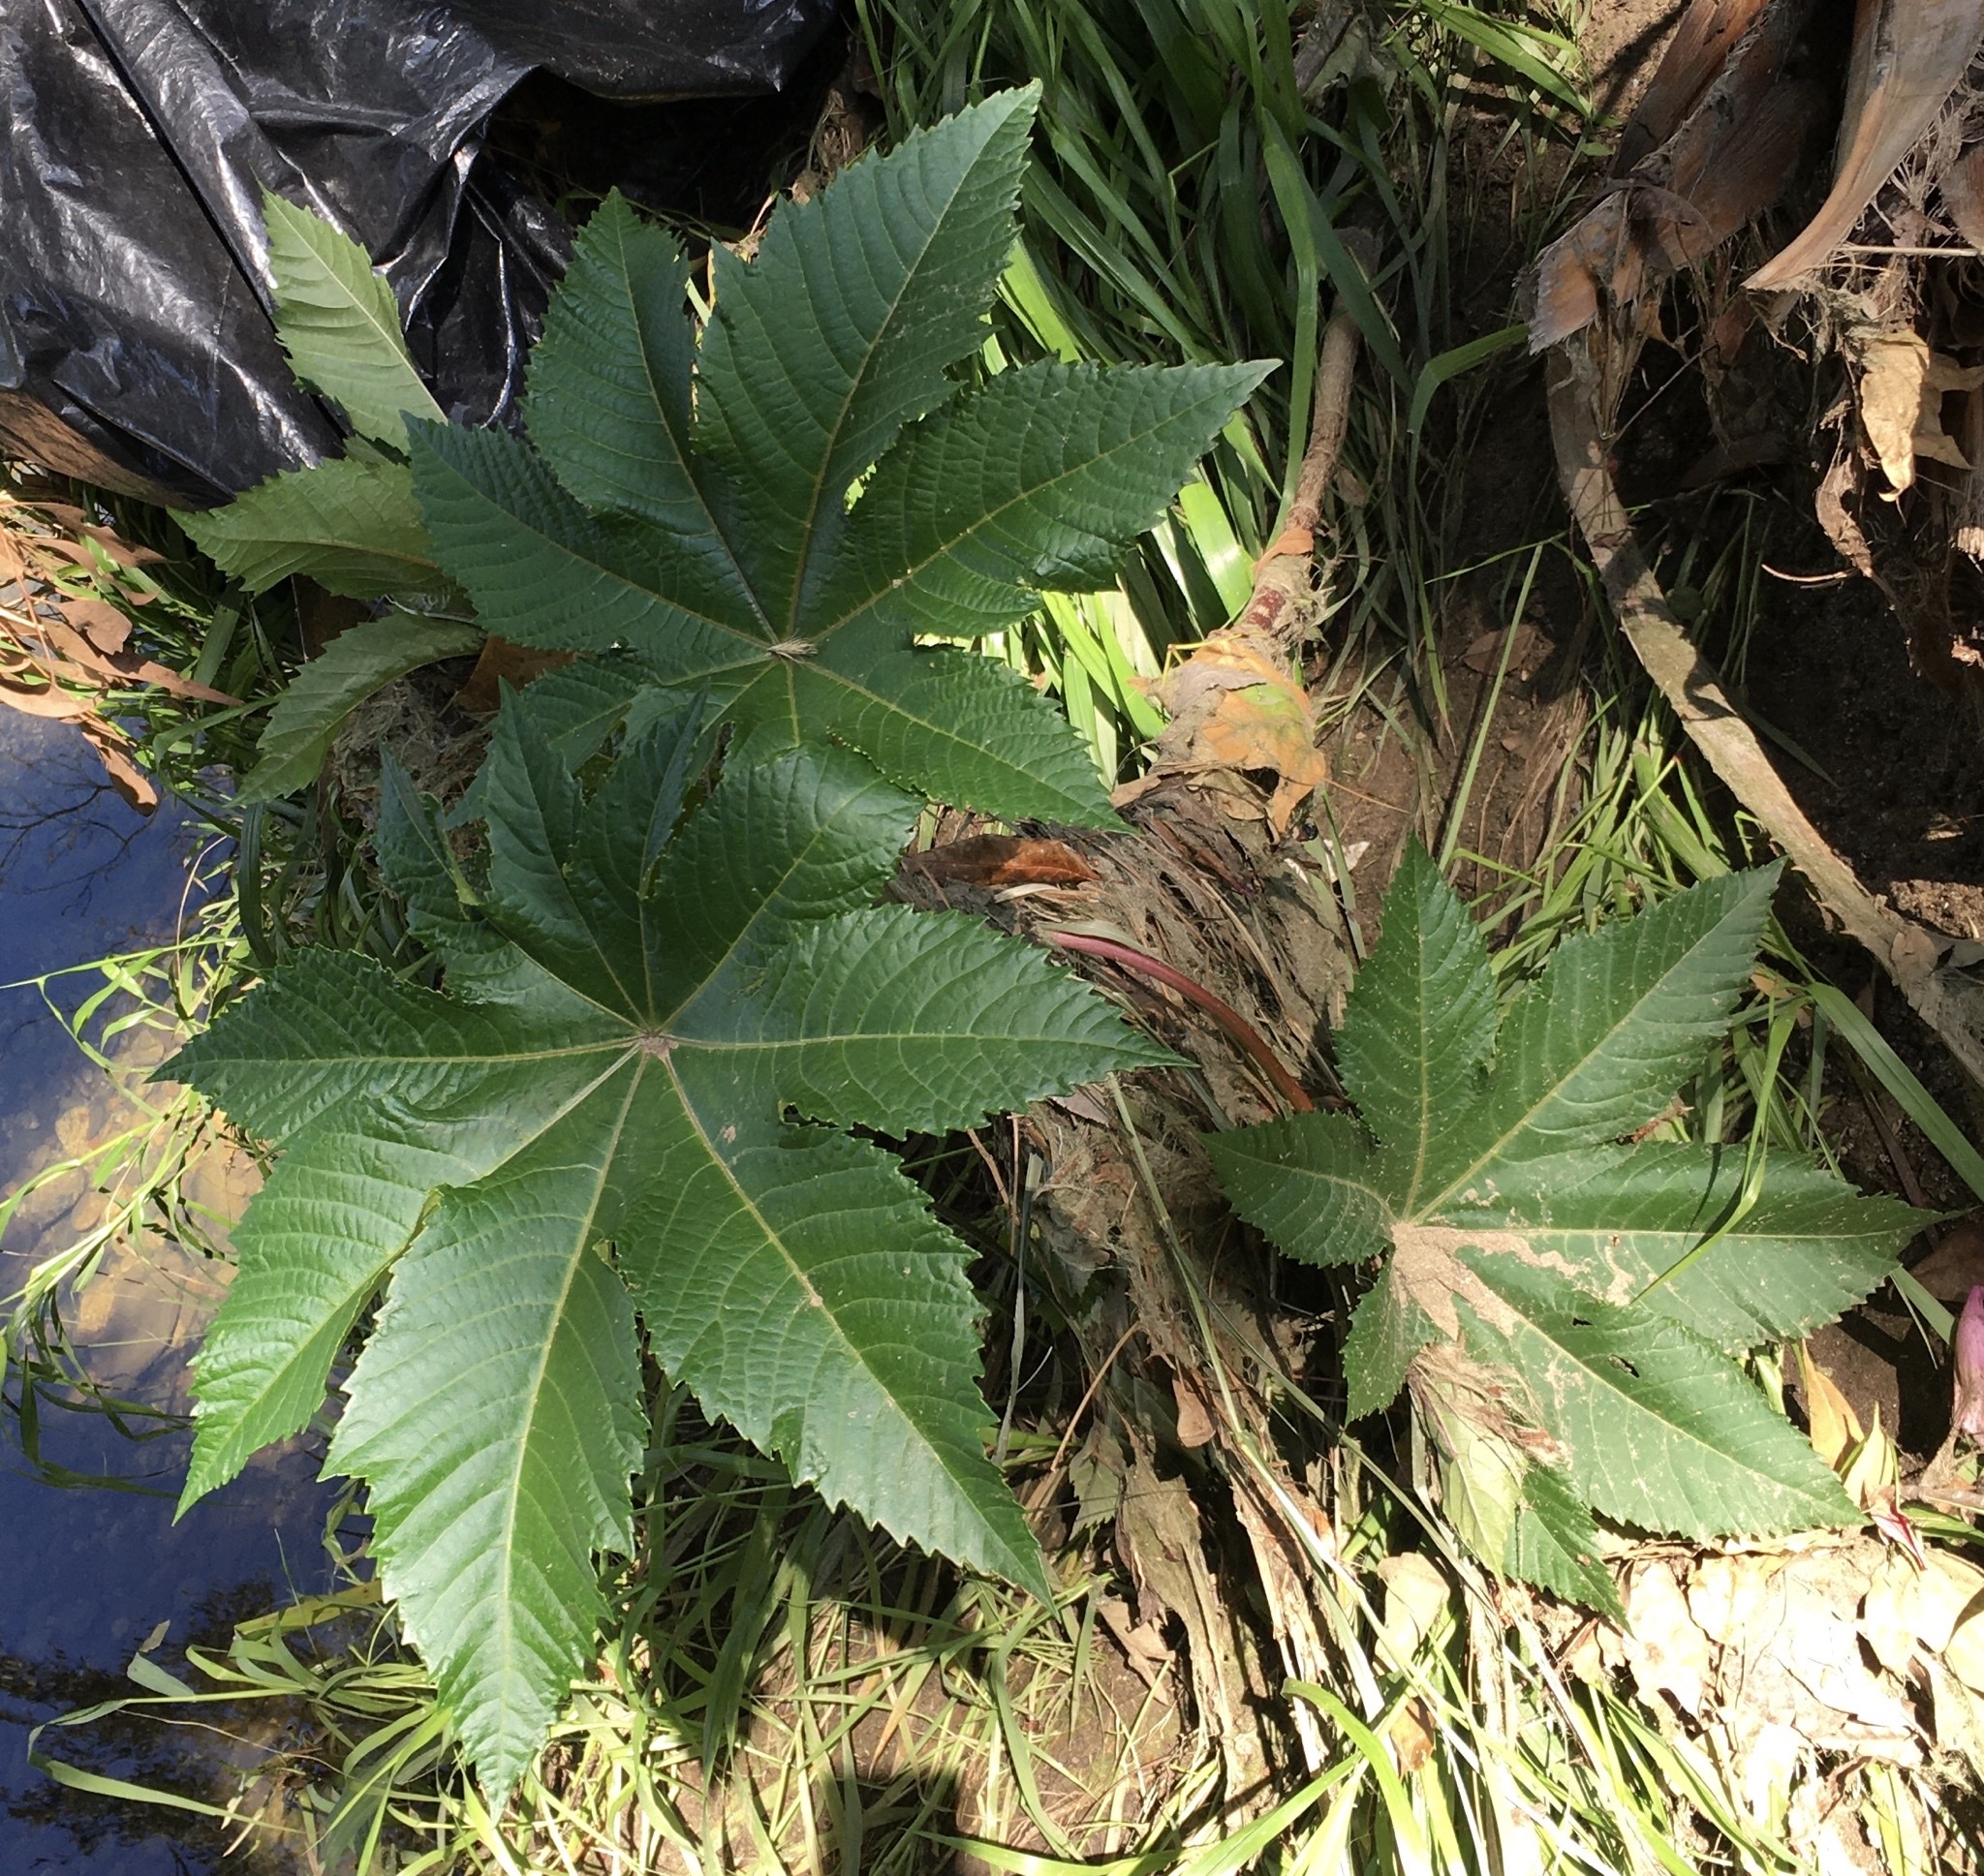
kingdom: Plantae
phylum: Tracheophyta
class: Magnoliopsida
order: Malpighiales
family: Euphorbiaceae
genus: Ricinus
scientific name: Ricinus communis
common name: Castor-oil-plant
